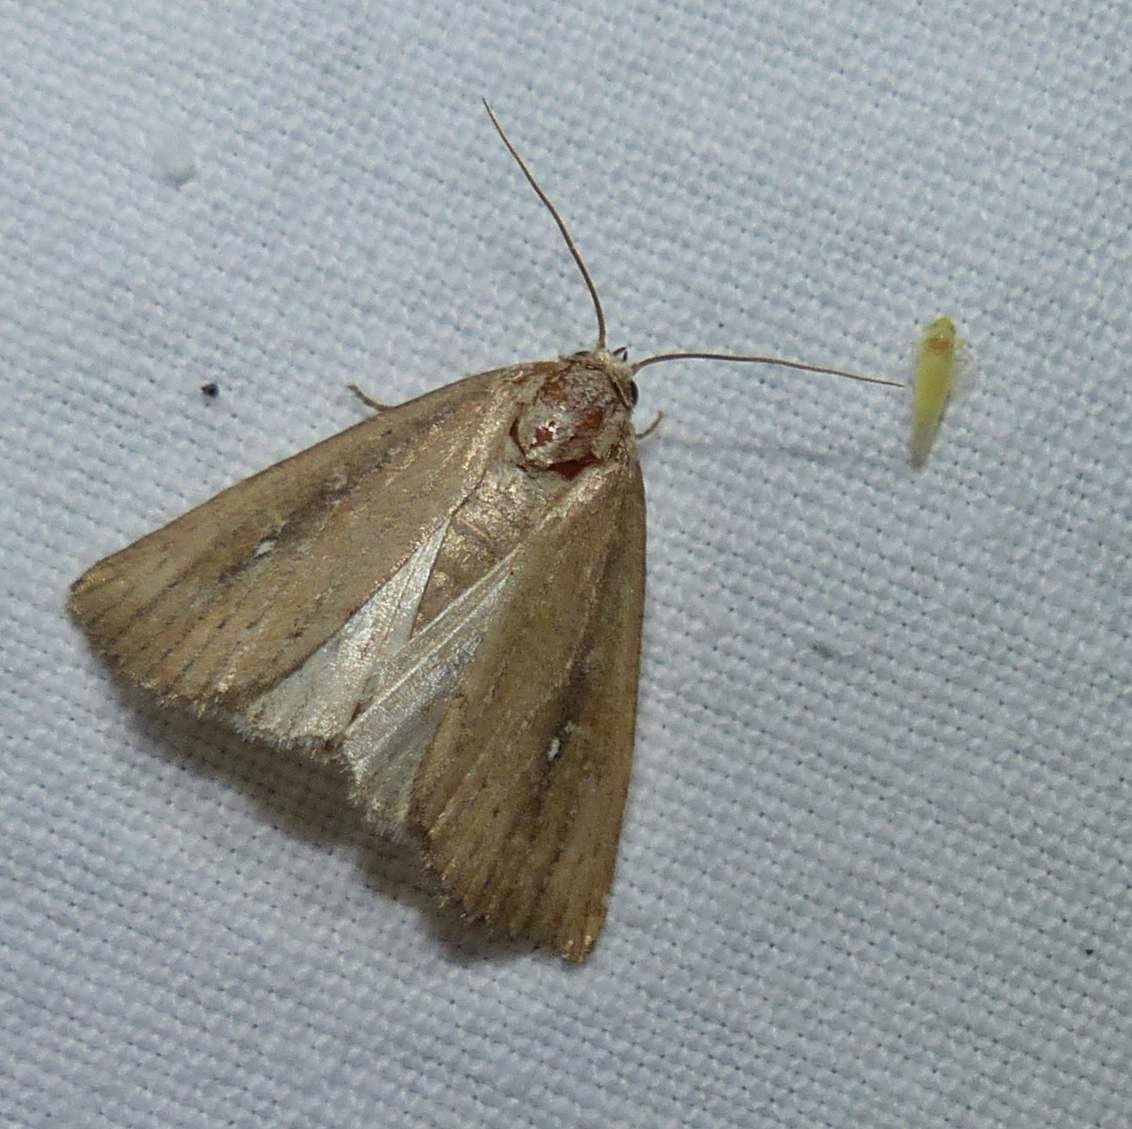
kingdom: Animalia
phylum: Arthropoda
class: Insecta
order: Lepidoptera
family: Noctuidae
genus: Condica
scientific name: Condica videns
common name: White-dotted groundling
